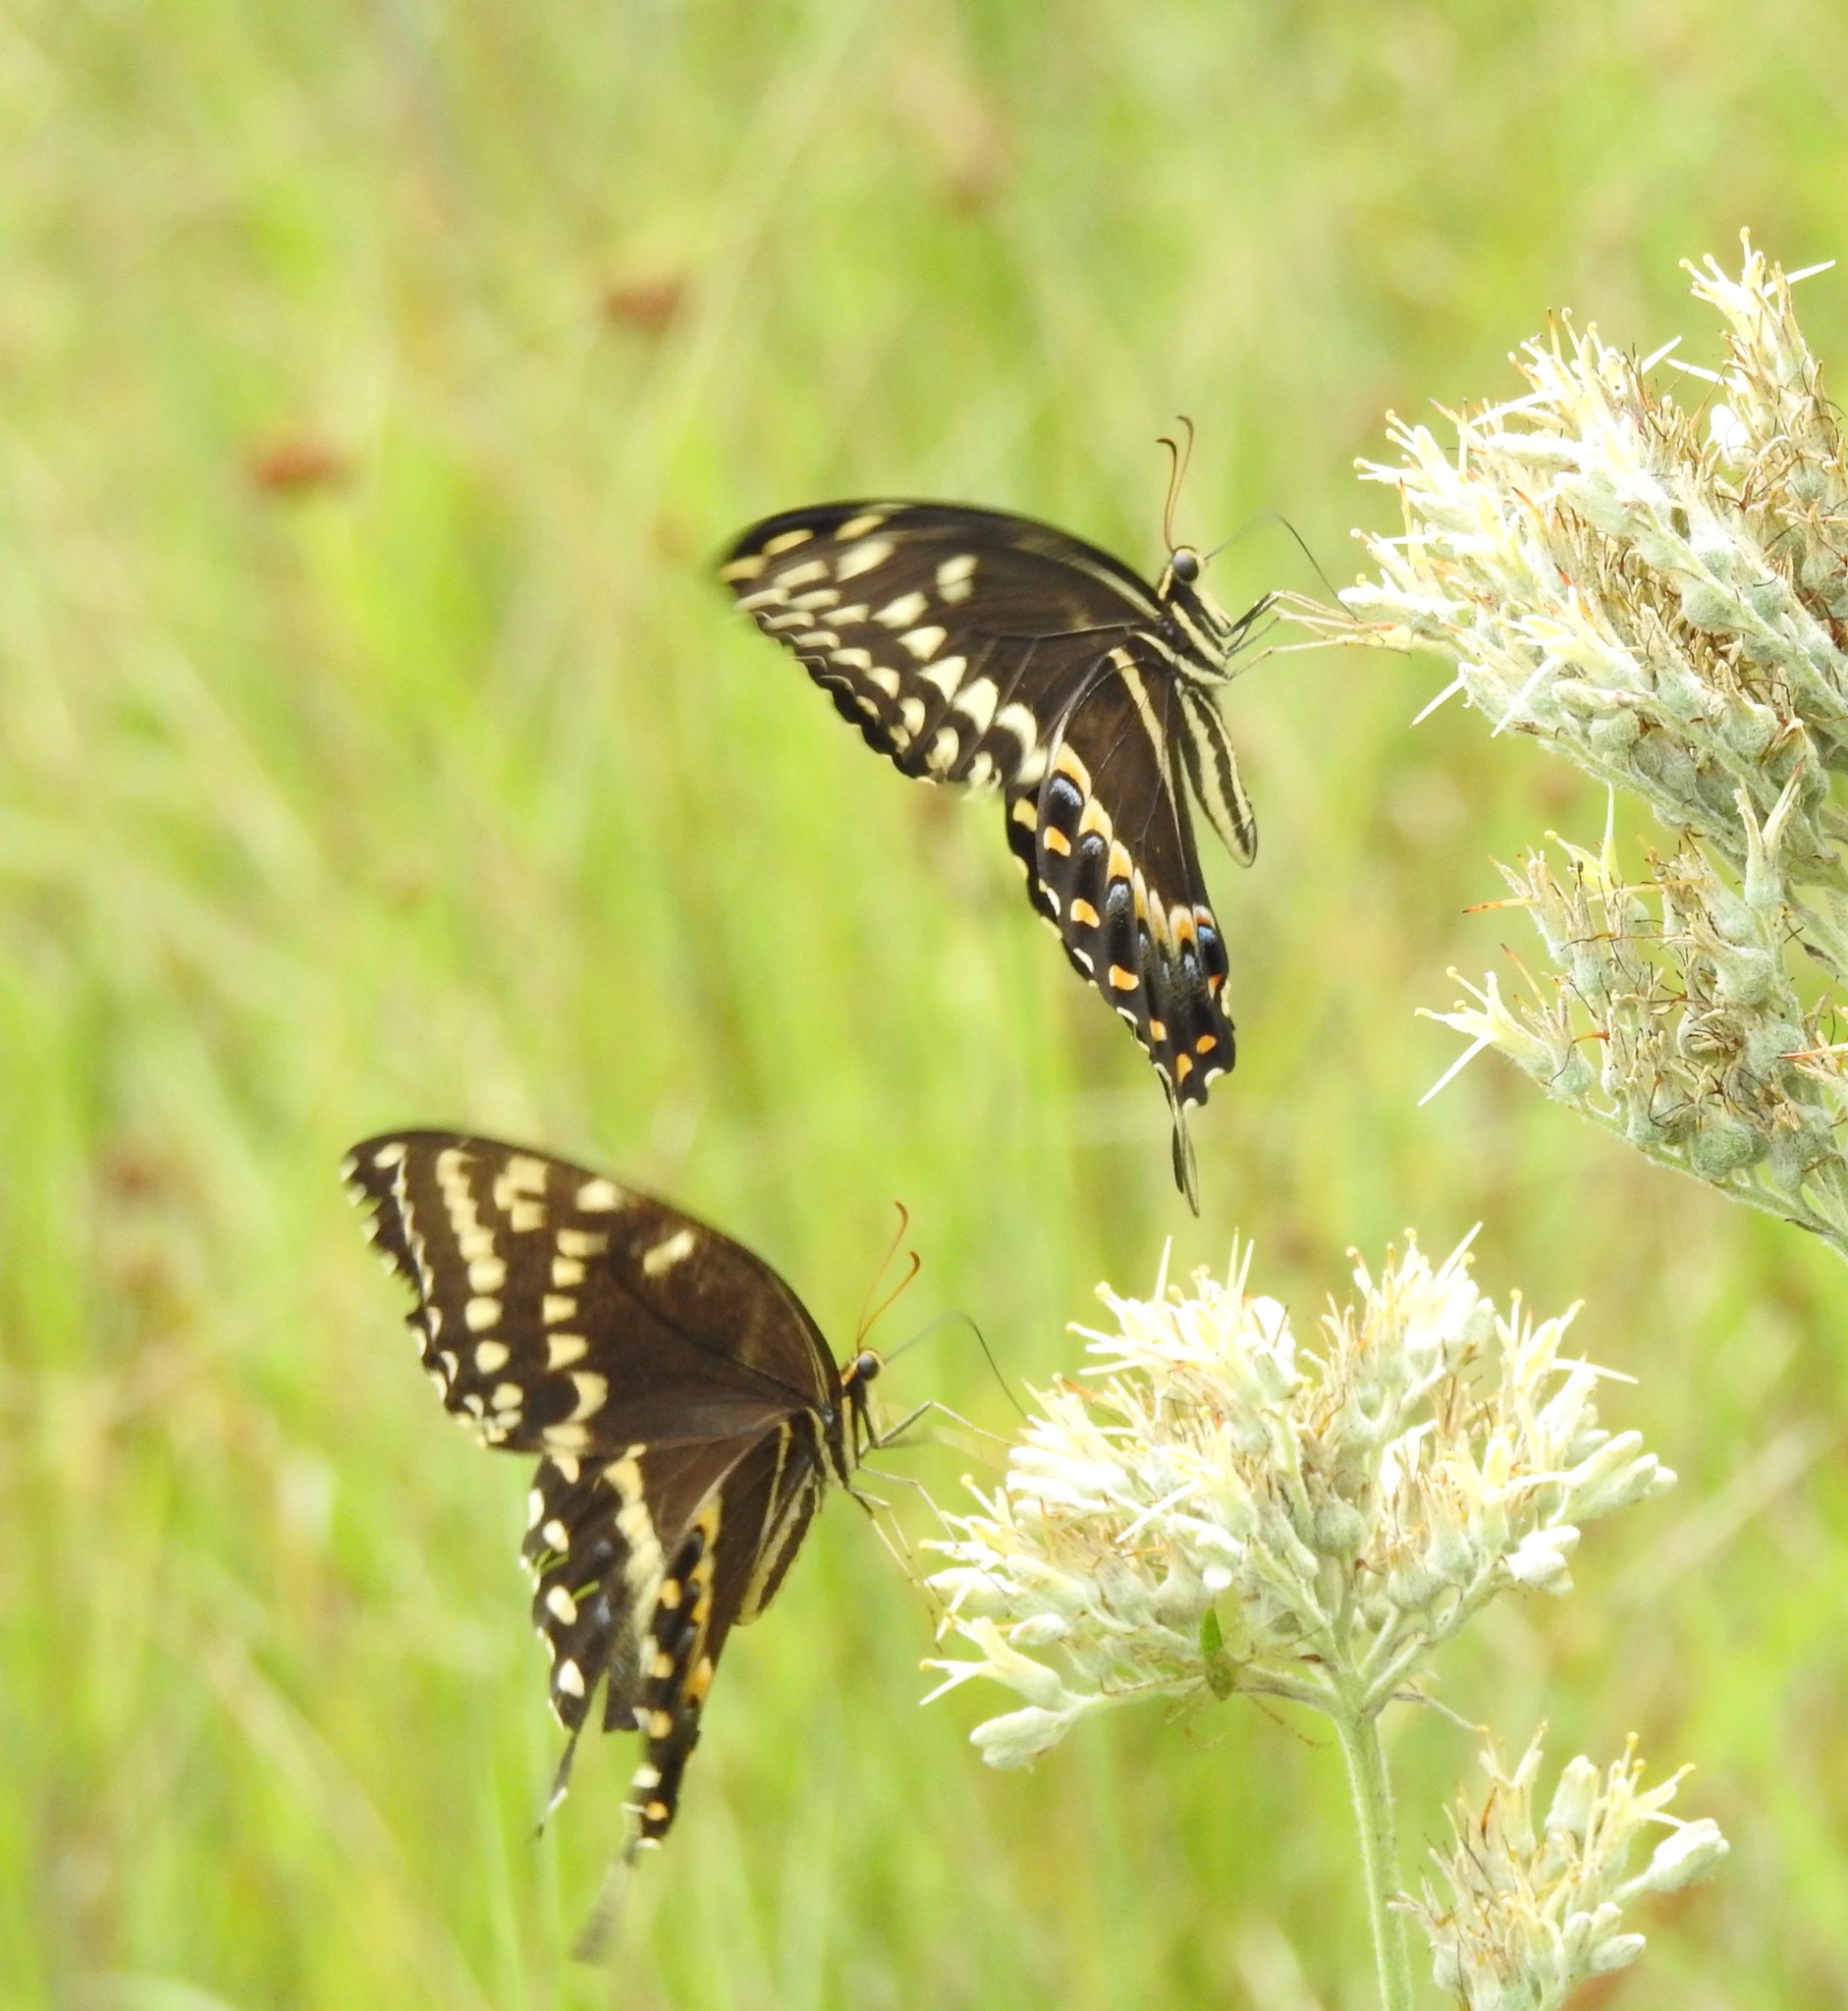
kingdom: Animalia
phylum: Arthropoda
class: Insecta
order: Lepidoptera
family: Papilionidae
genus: Papilio
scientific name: Papilio palamedes
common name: Palamedes swallowtail
